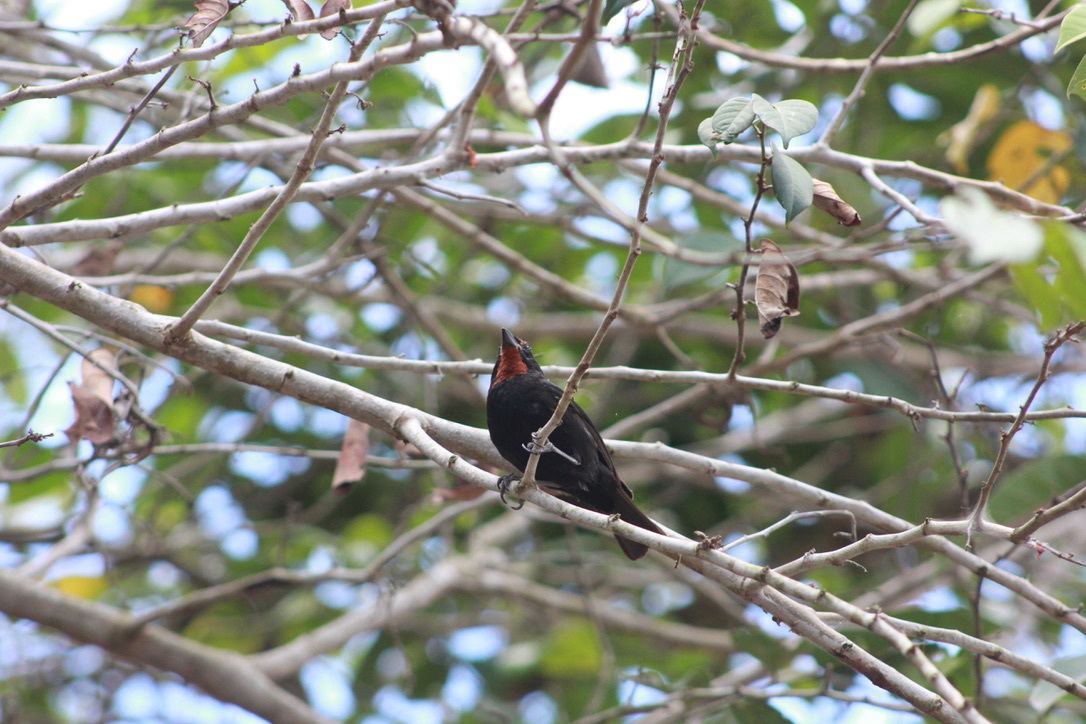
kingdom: Animalia
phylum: Chordata
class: Aves
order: Passeriformes
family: Thraupidae
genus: Loxigilla
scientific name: Loxigilla noctis
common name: Lesser antillean bullfinch
